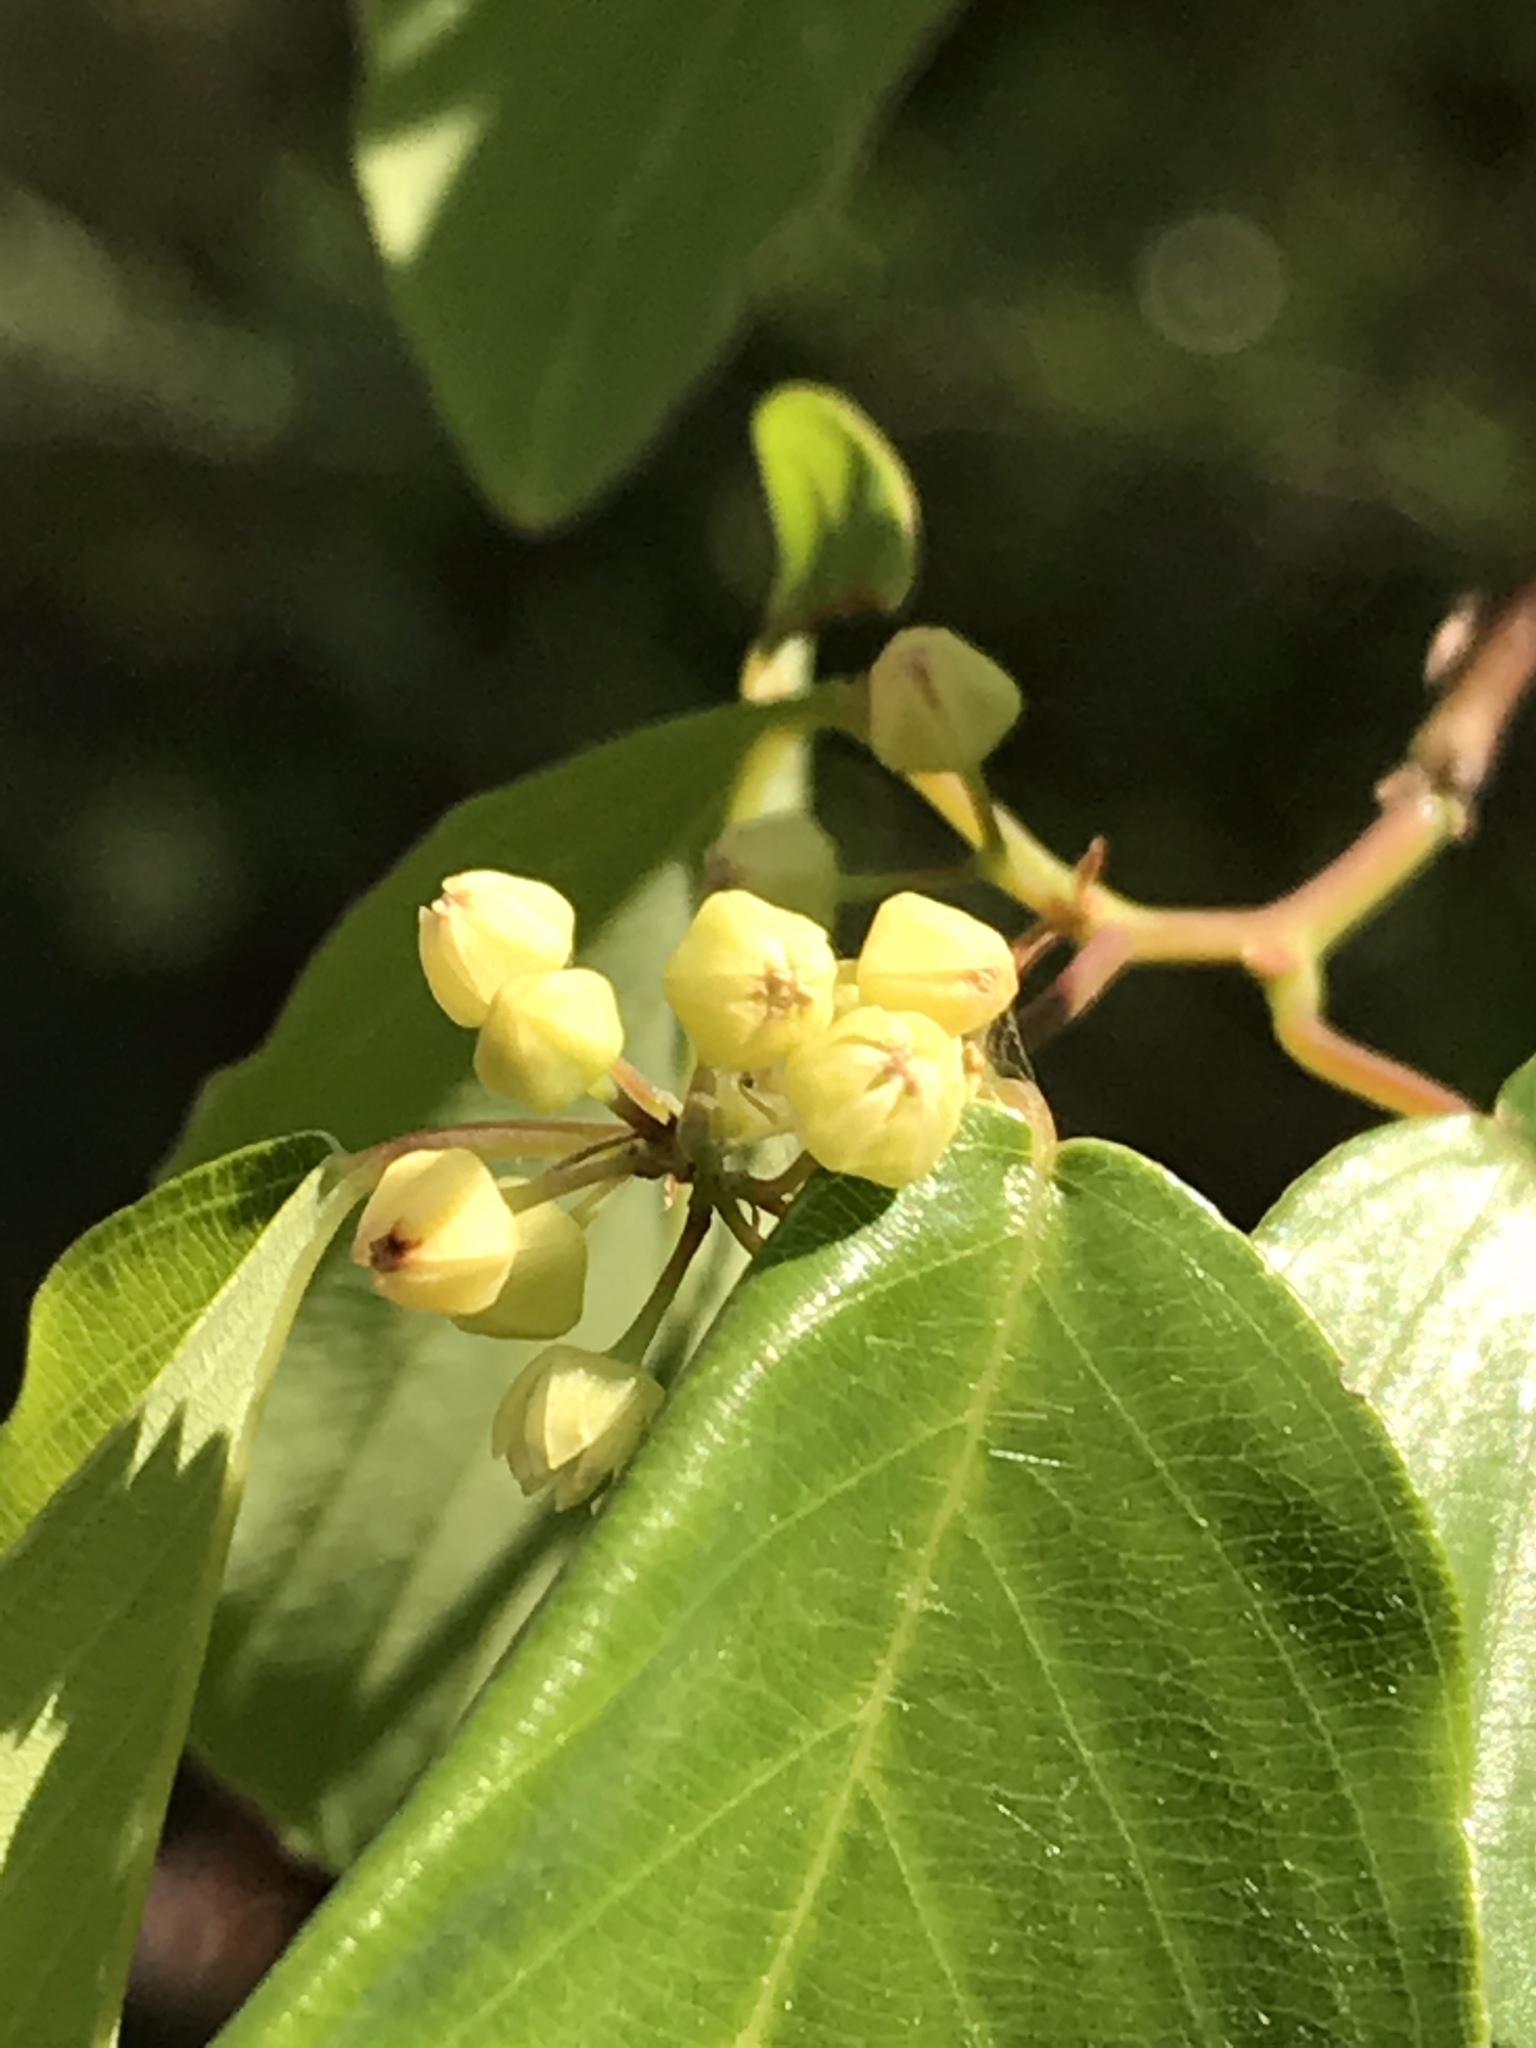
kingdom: Plantae
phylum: Tracheophyta
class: Magnoliopsida
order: Rosales
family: Rhamnaceae
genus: Berchemia
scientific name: Berchemia scandens
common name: Supplejack
